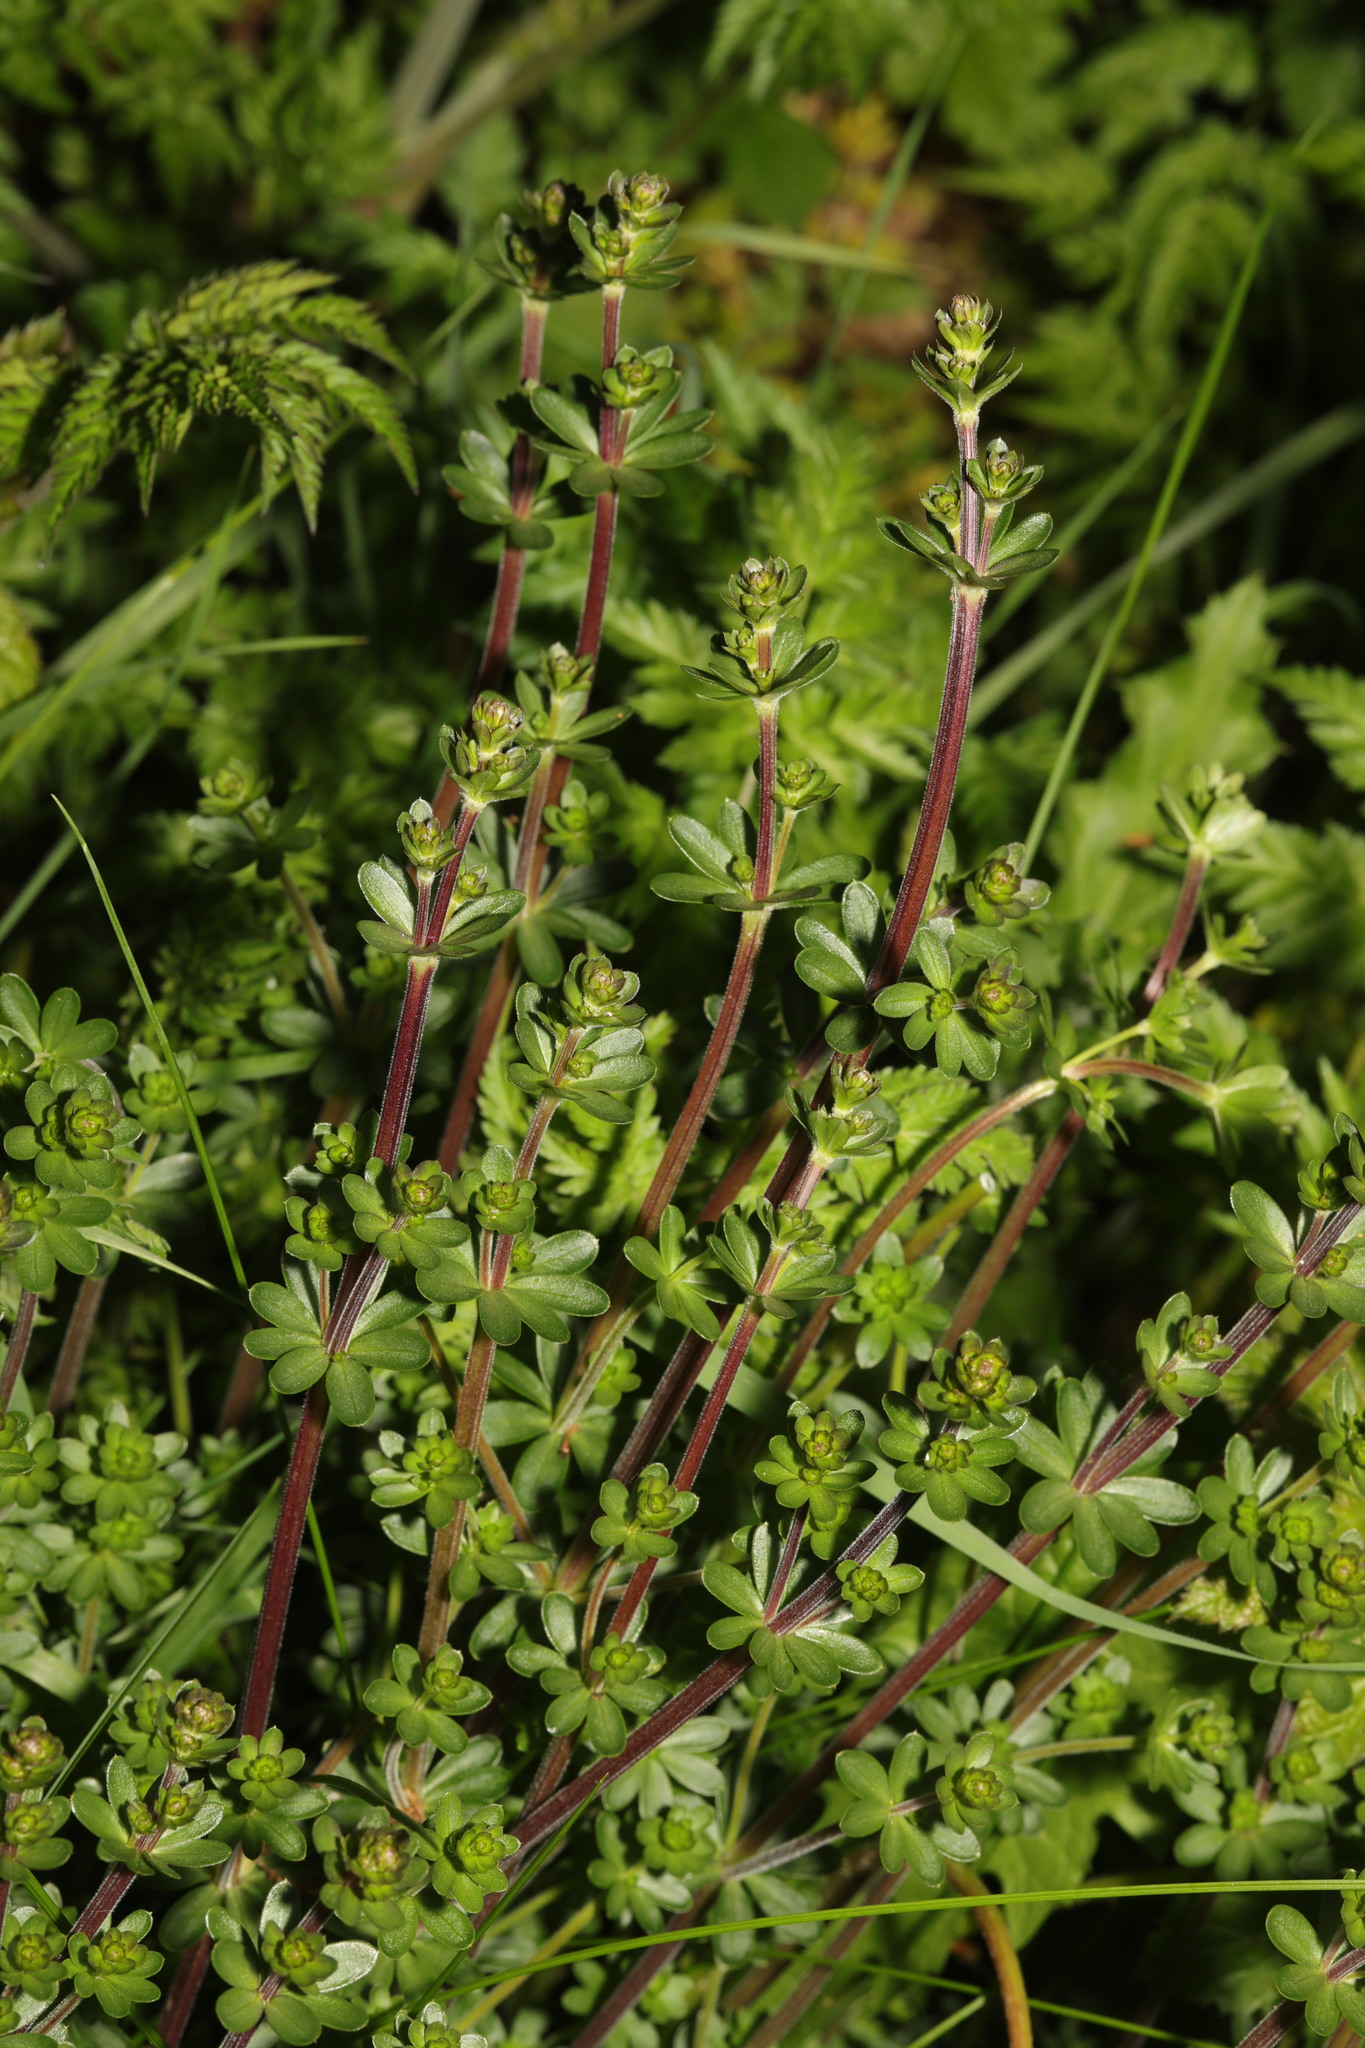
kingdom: Plantae
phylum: Tracheophyta
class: Magnoliopsida
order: Gentianales
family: Rubiaceae
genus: Galium
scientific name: Galium mollugo
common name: Hedge bedstraw
